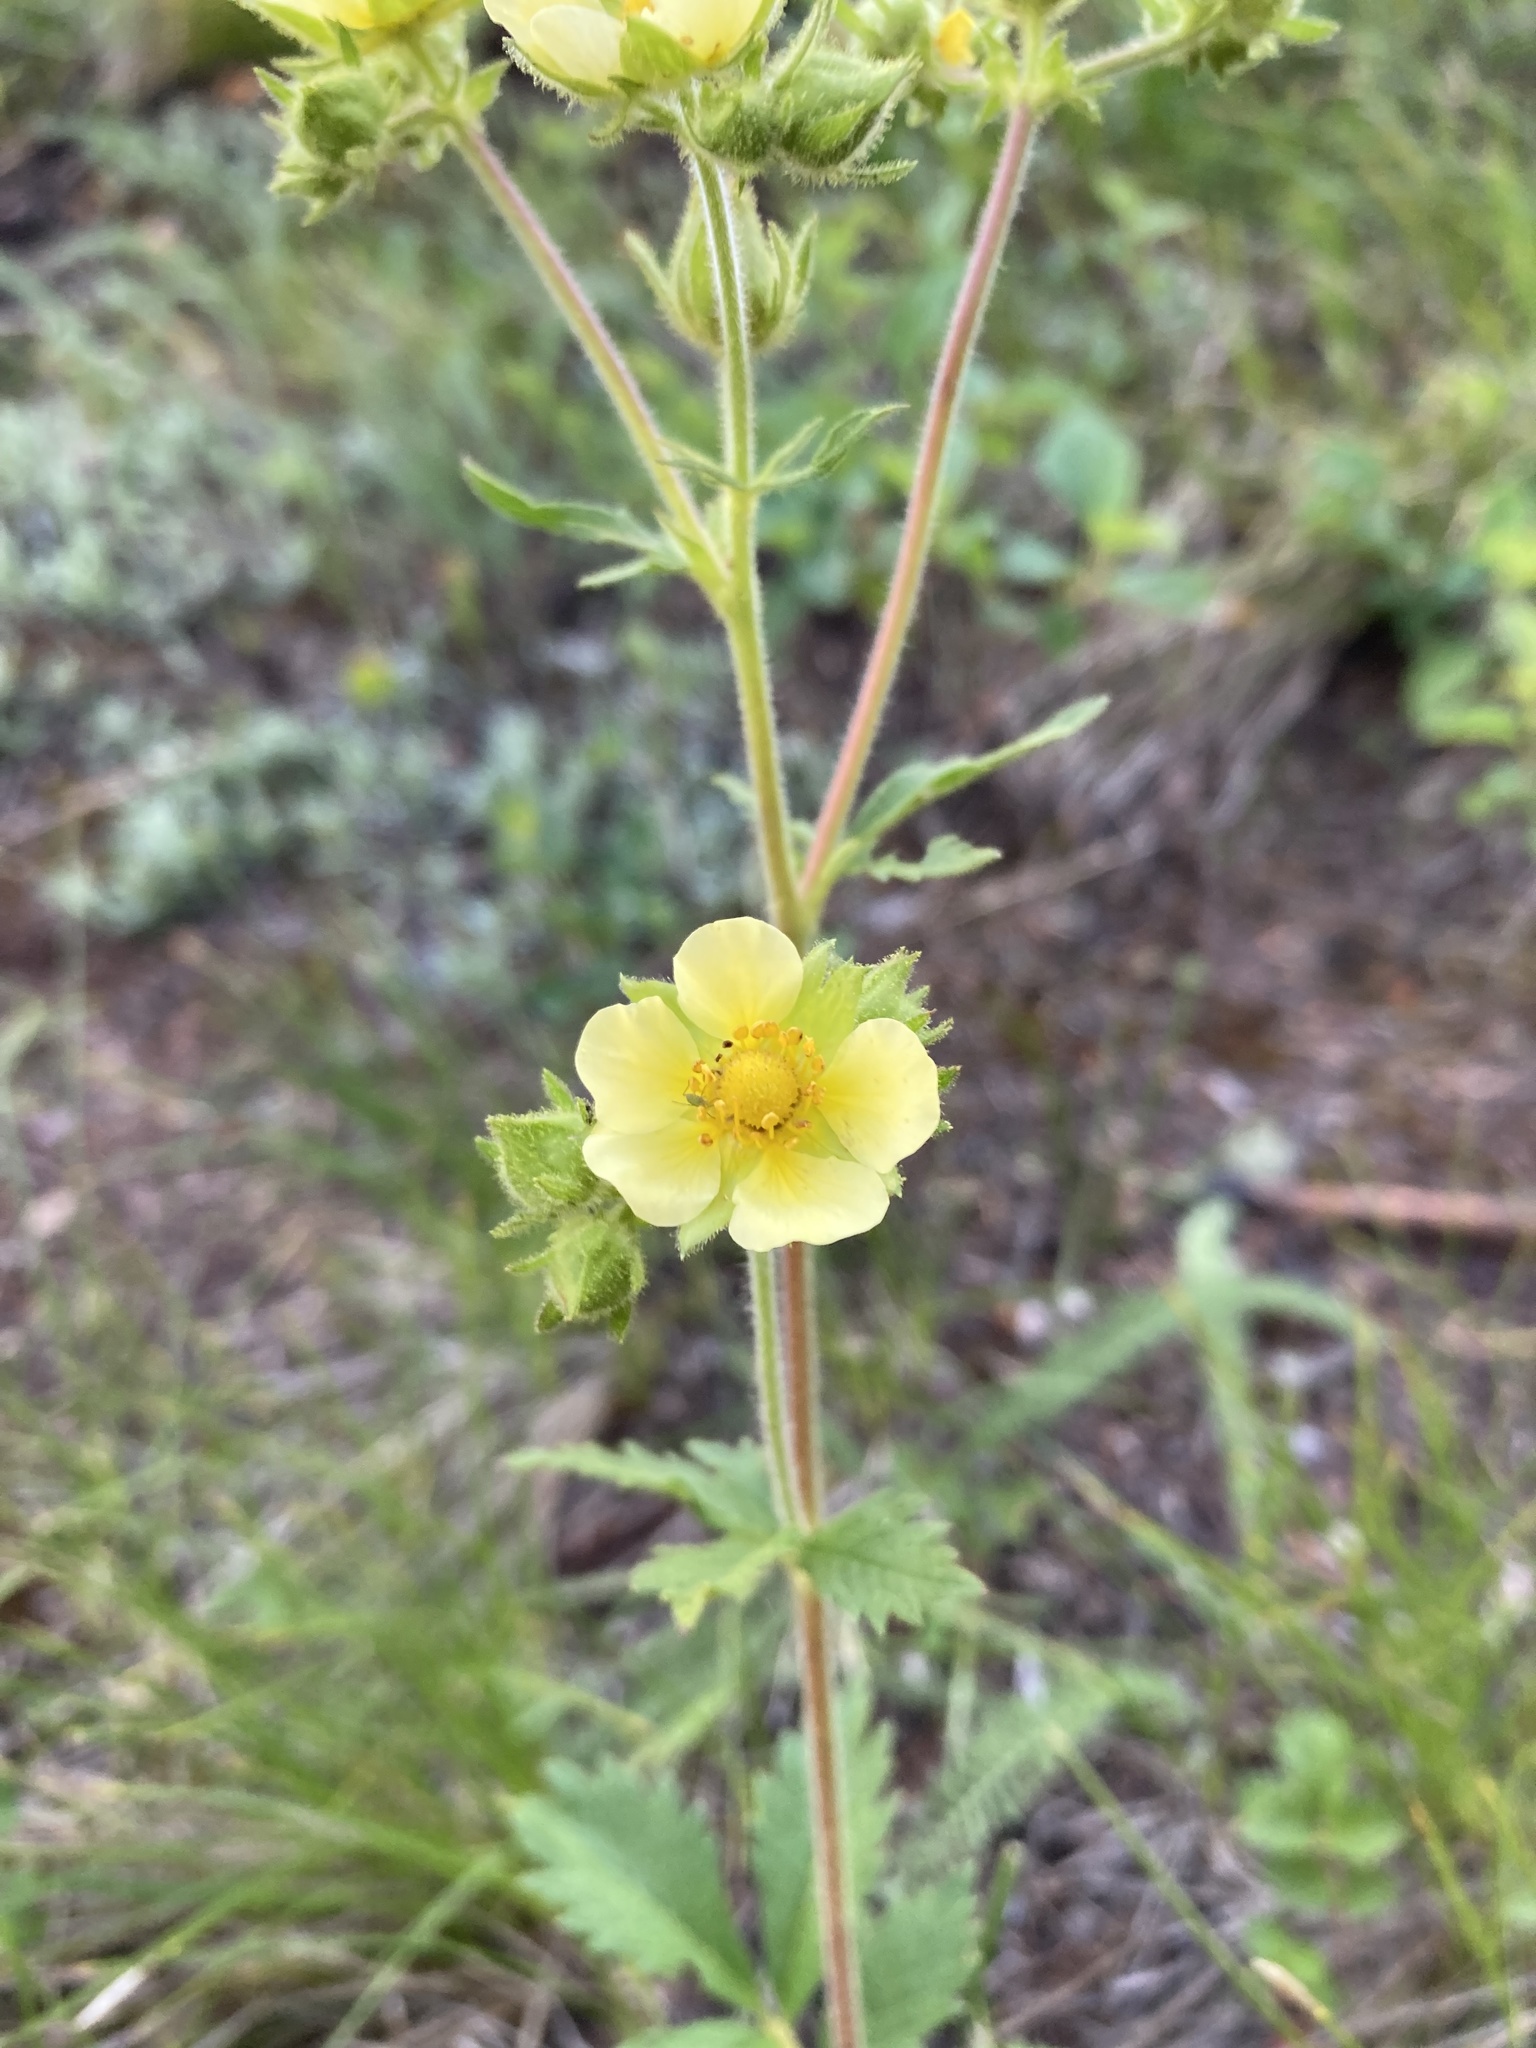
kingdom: Plantae
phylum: Tracheophyta
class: Magnoliopsida
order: Rosales
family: Rosaceae
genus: Drymocallis
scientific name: Drymocallis arguta
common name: Tall cinquefoil
